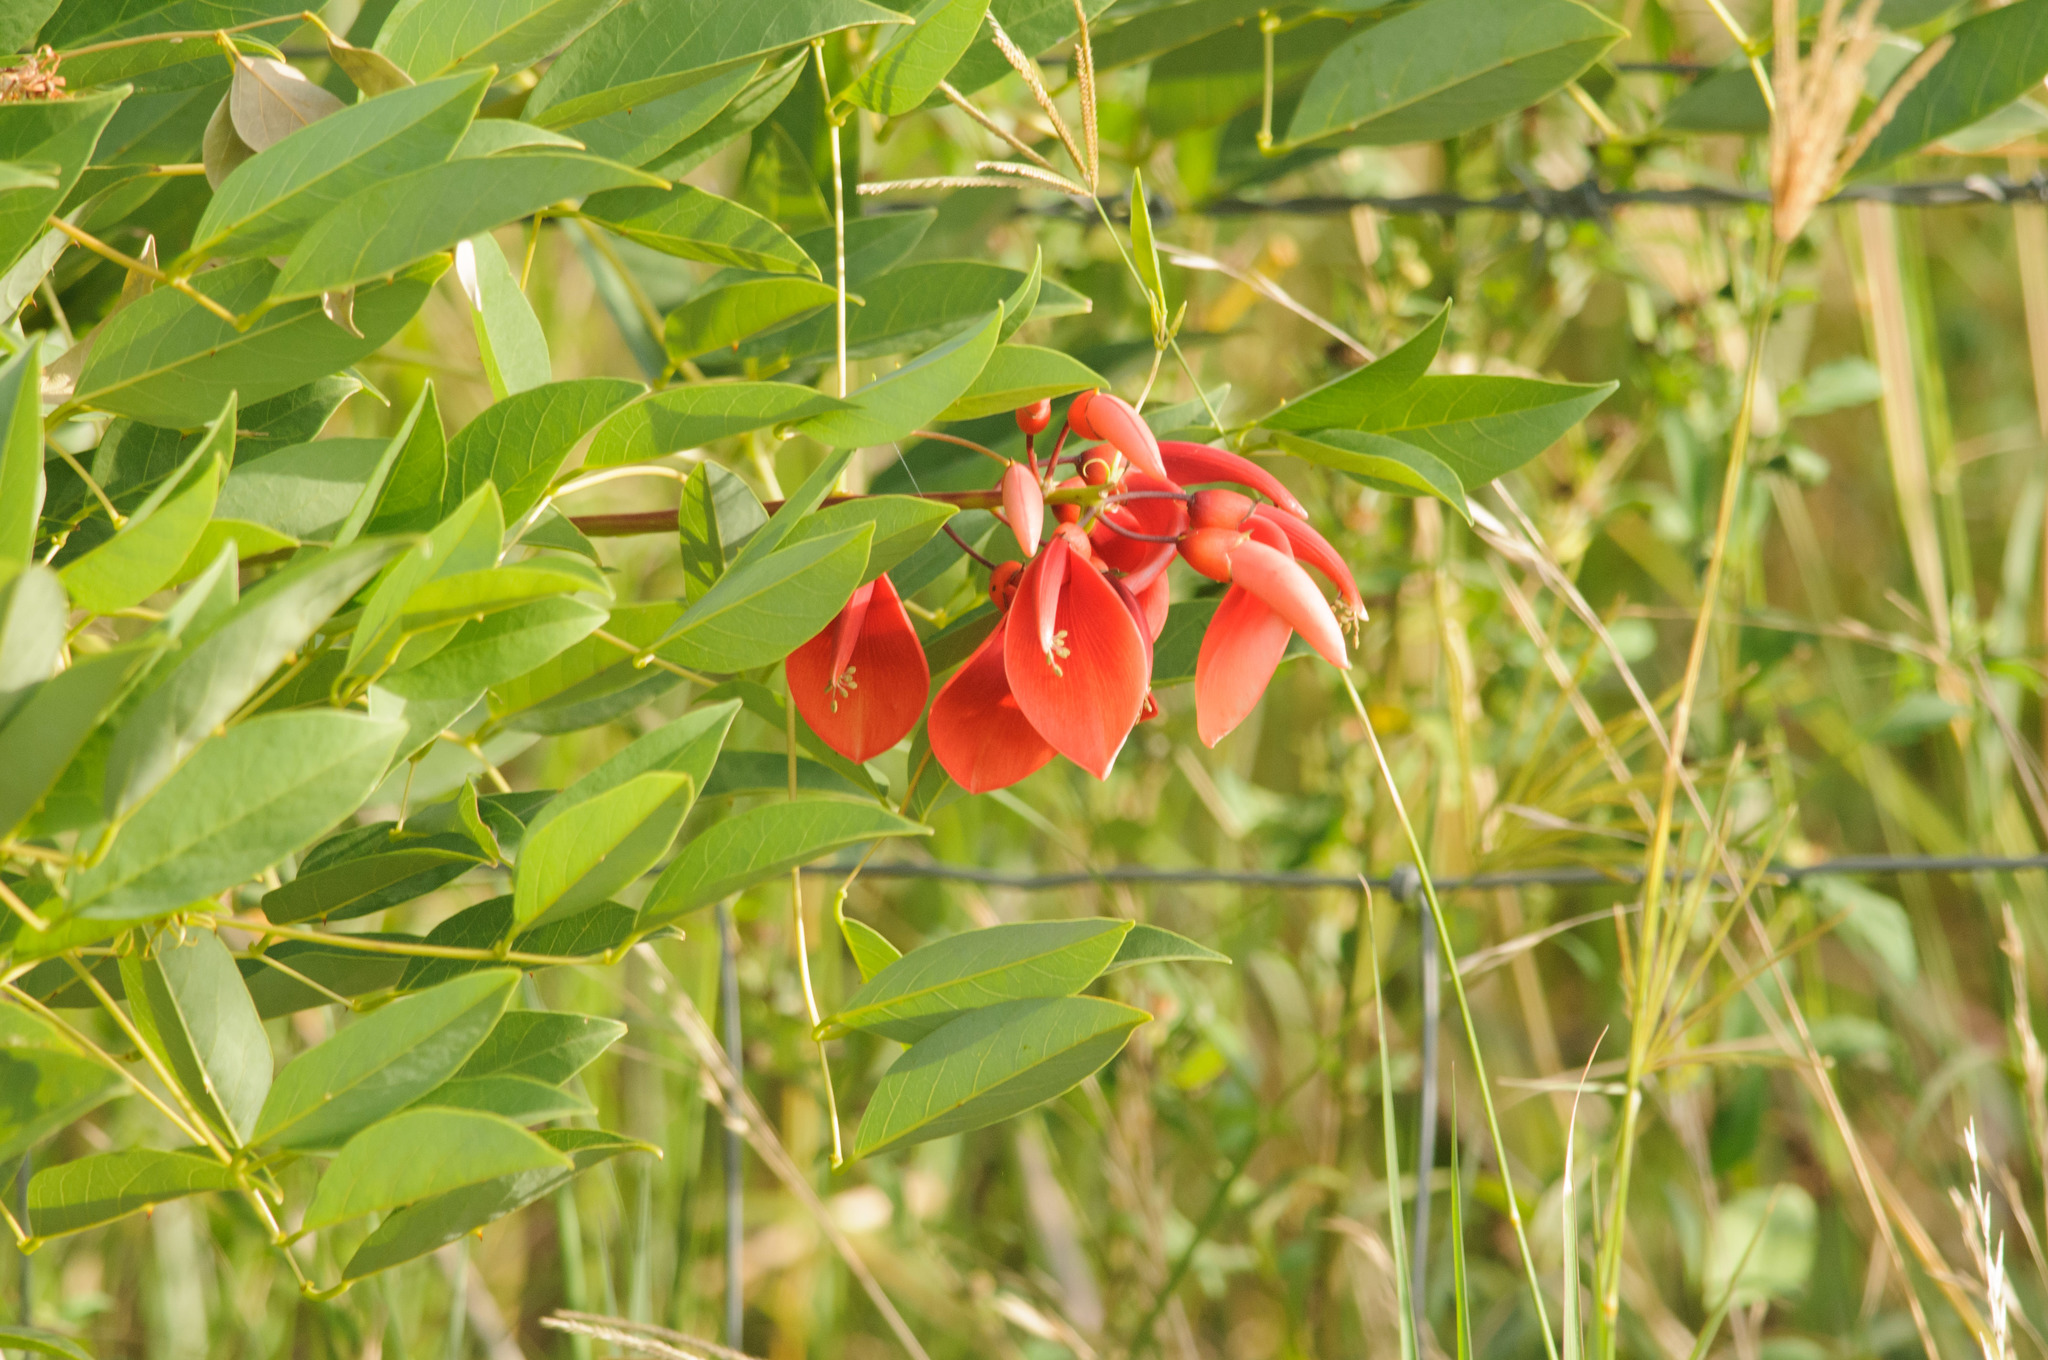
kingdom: Plantae
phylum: Tracheophyta
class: Magnoliopsida
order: Fabales
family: Fabaceae
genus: Erythrina
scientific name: Erythrina crista-galli
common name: Cockspur coral tree
